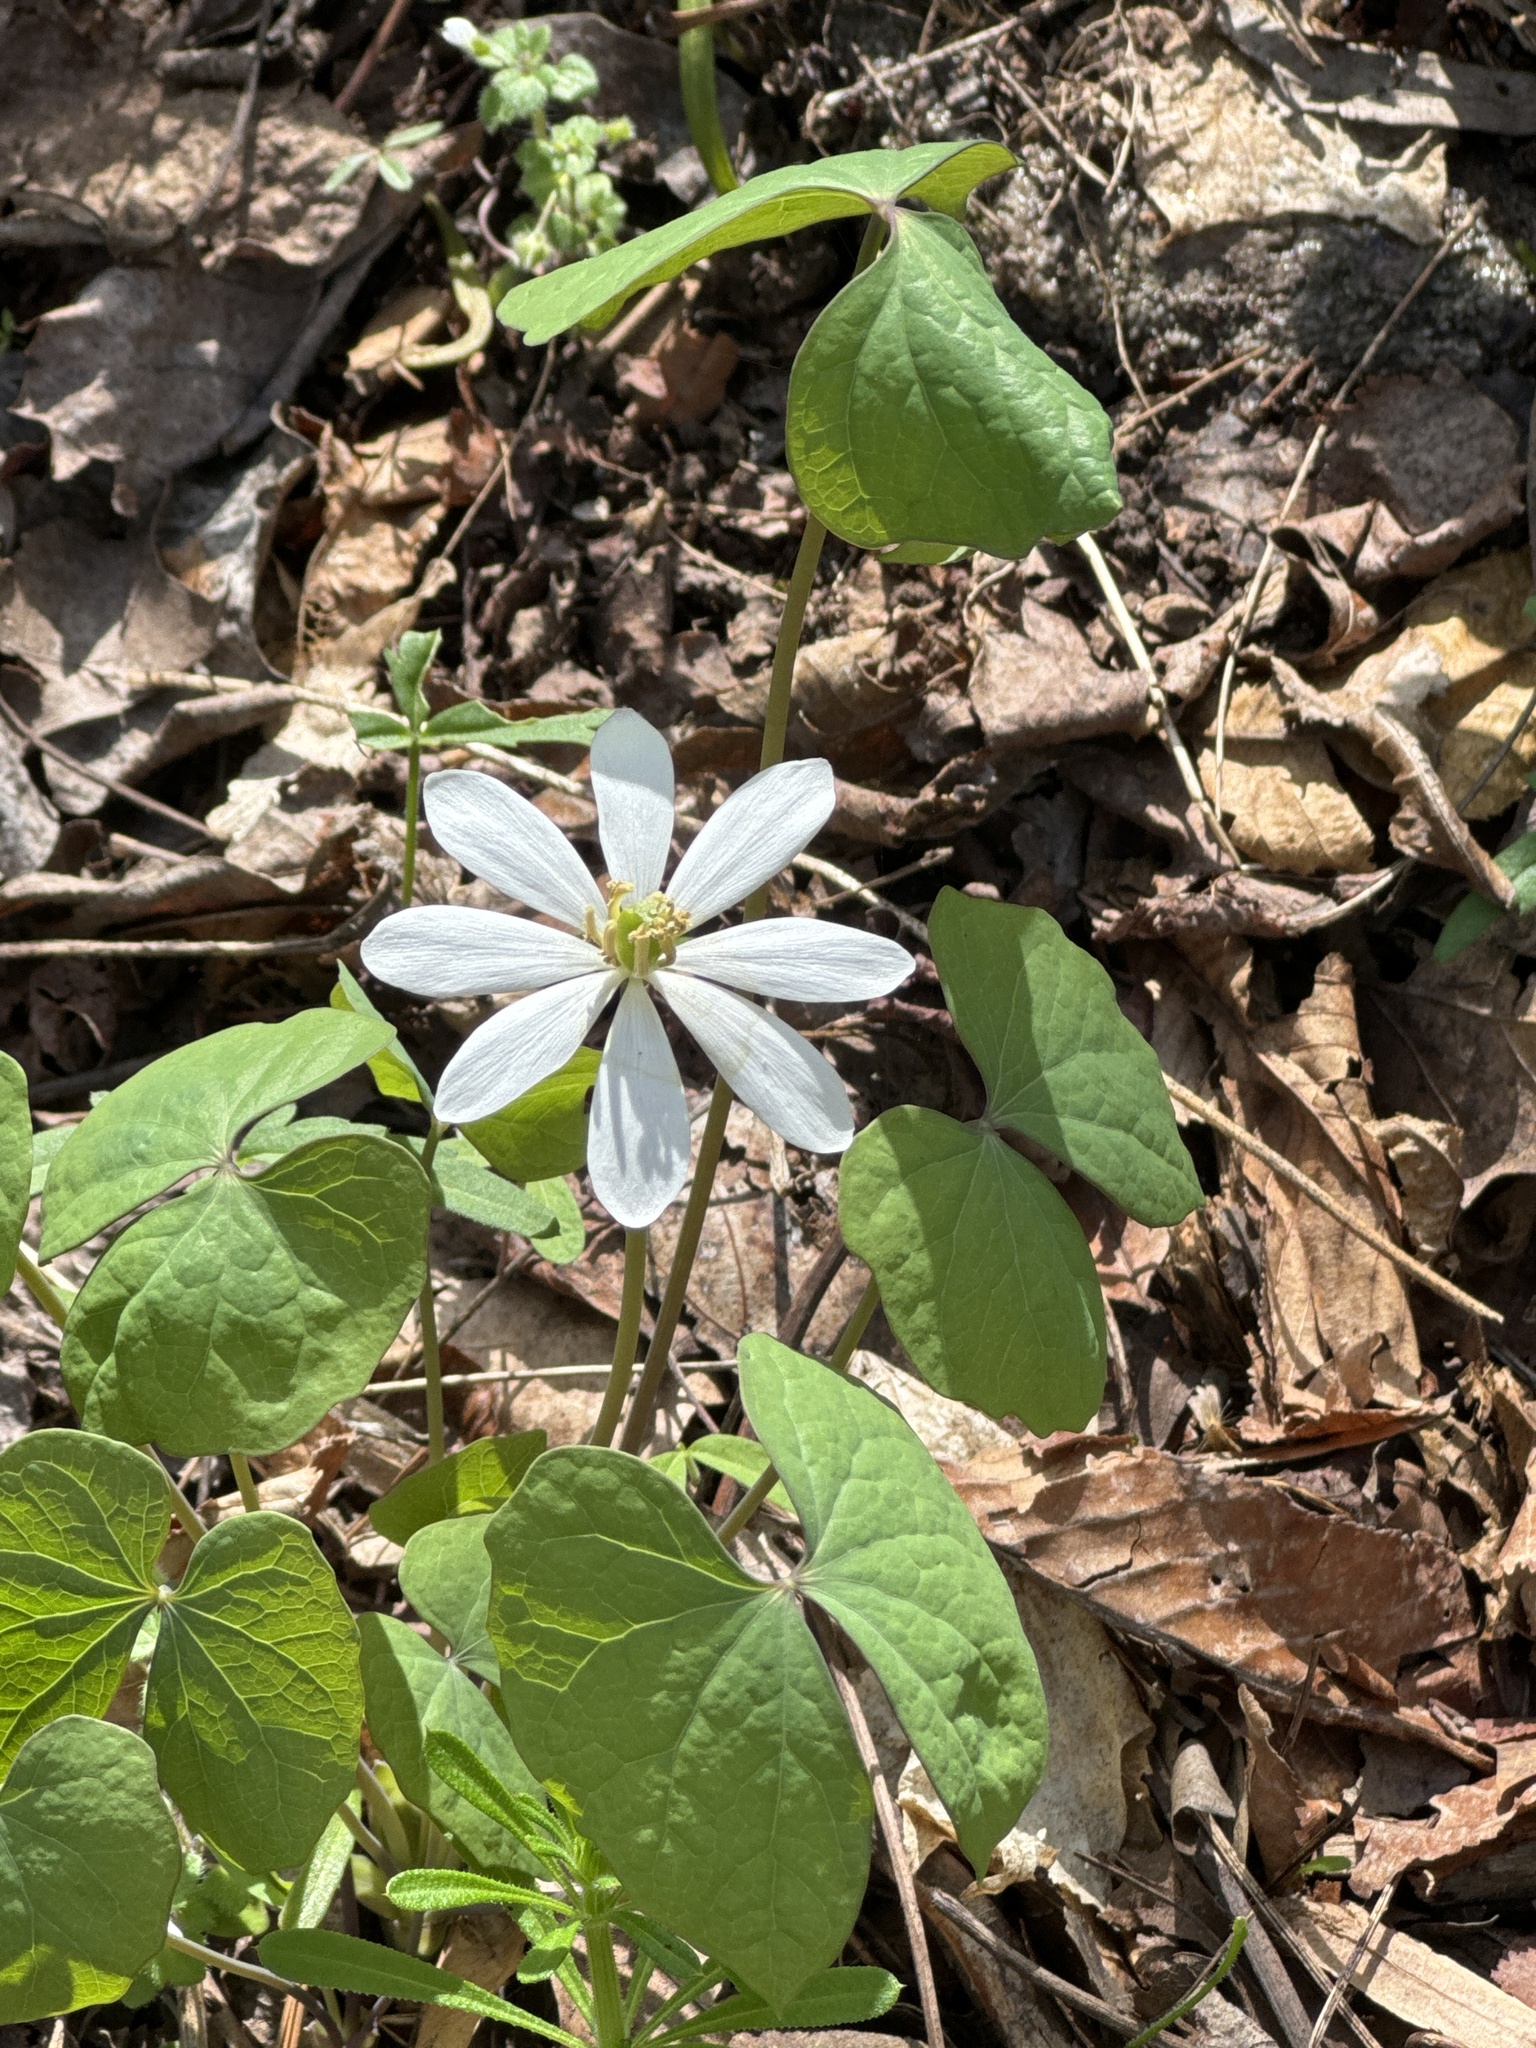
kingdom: Plantae
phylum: Tracheophyta
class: Magnoliopsida
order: Ranunculales
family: Berberidaceae
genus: Jeffersonia
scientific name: Jeffersonia diphylla
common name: Rheumatism-root
